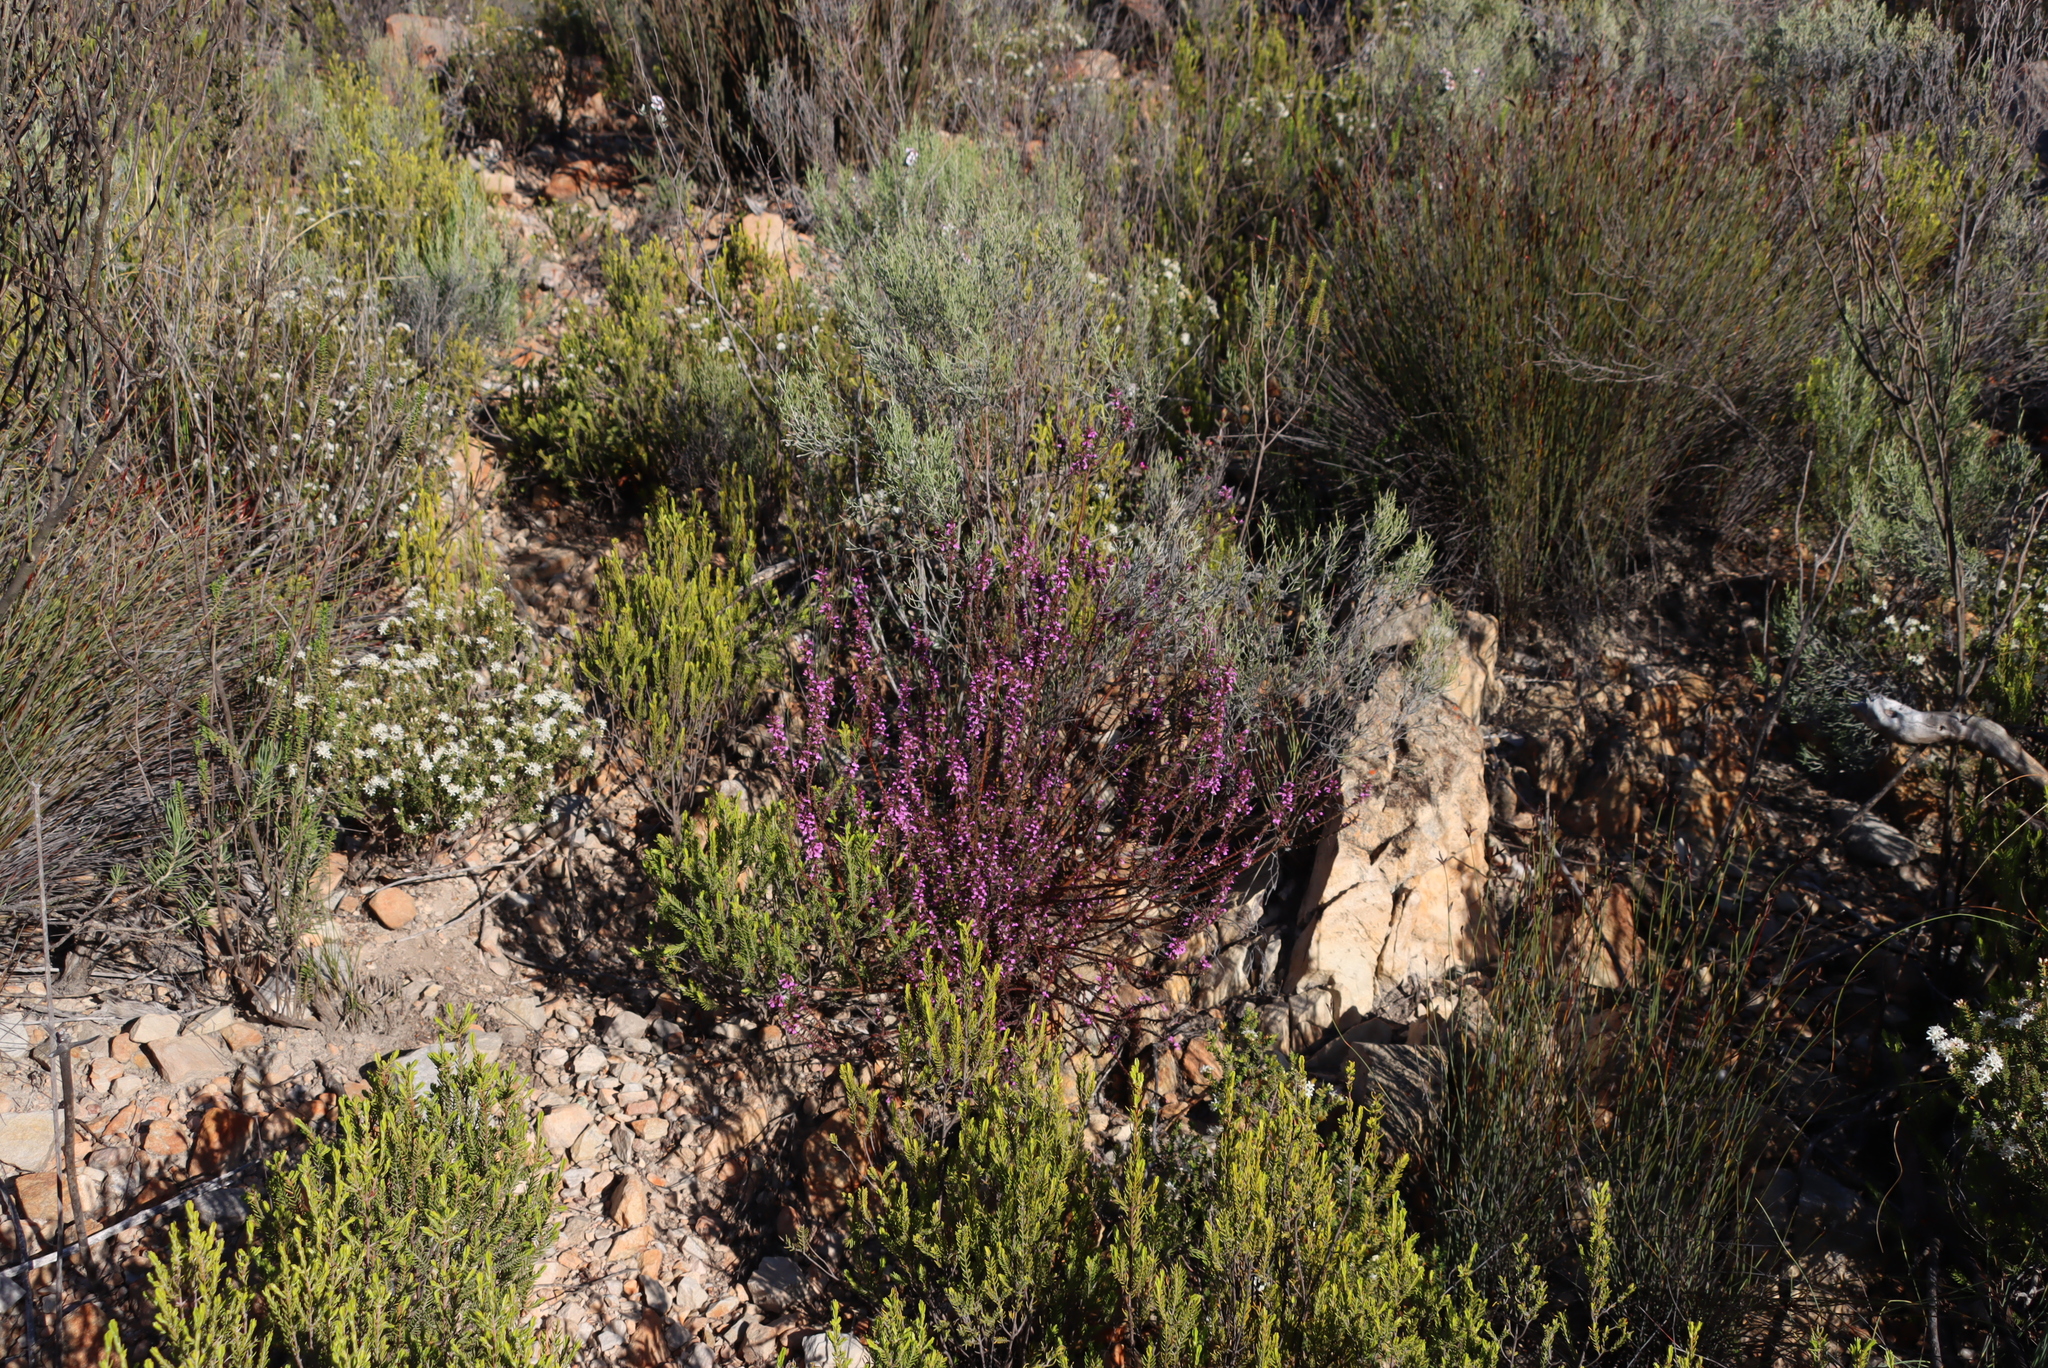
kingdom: Plantae
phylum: Tracheophyta
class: Magnoliopsida
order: Fabales
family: Polygalaceae
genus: Muraltia
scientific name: Muraltia juniperifolia
